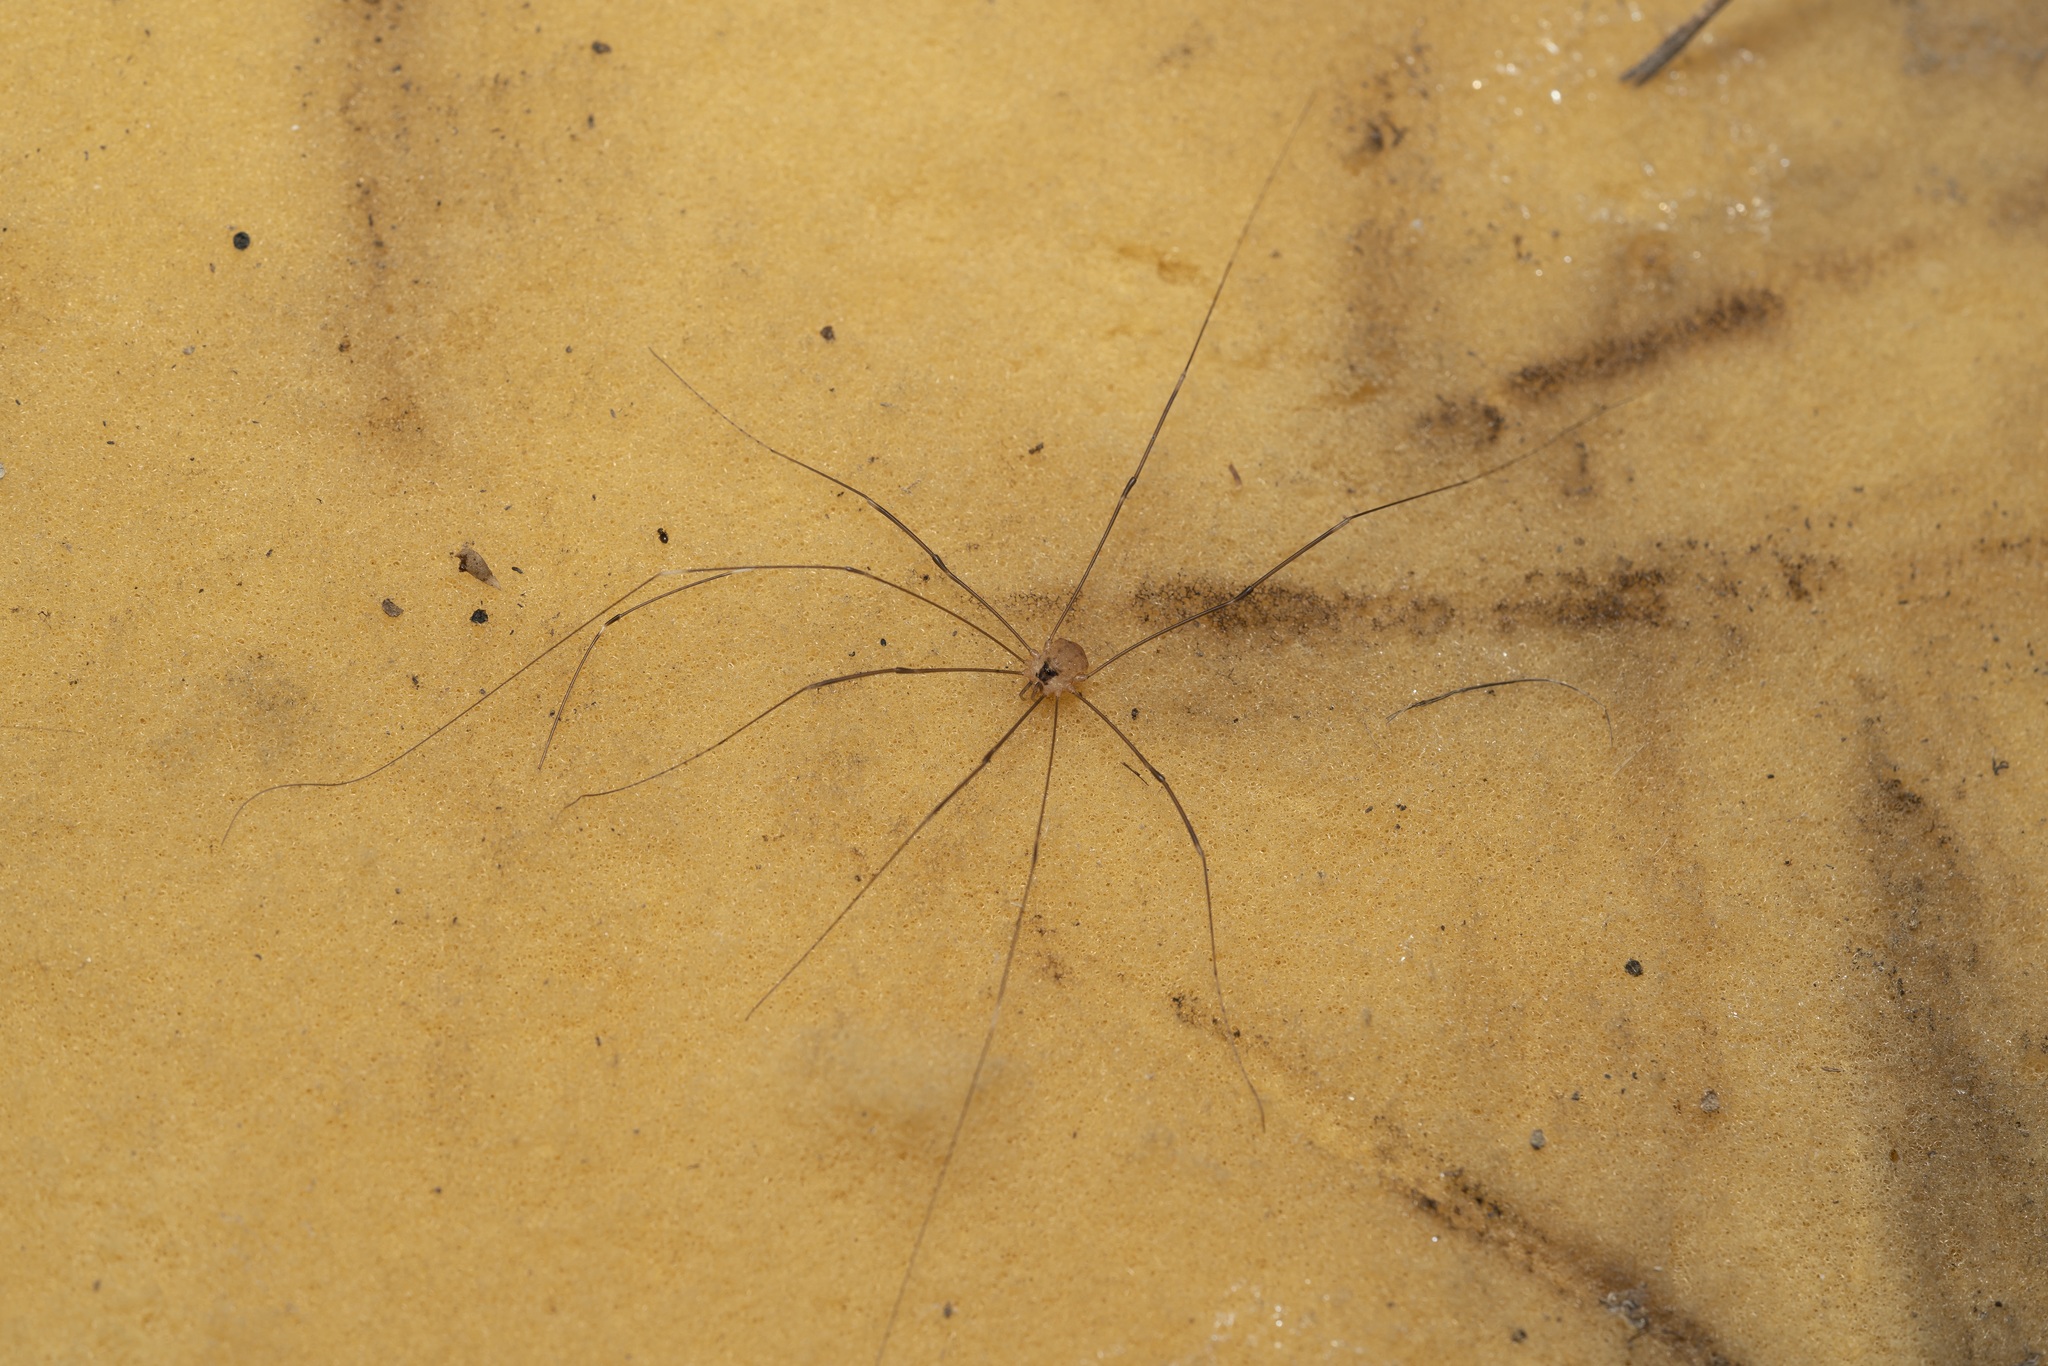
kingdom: Animalia
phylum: Arthropoda
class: Arachnida
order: Opiliones
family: Sclerosomatidae
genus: Leiobunum
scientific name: Leiobunum ghigii
